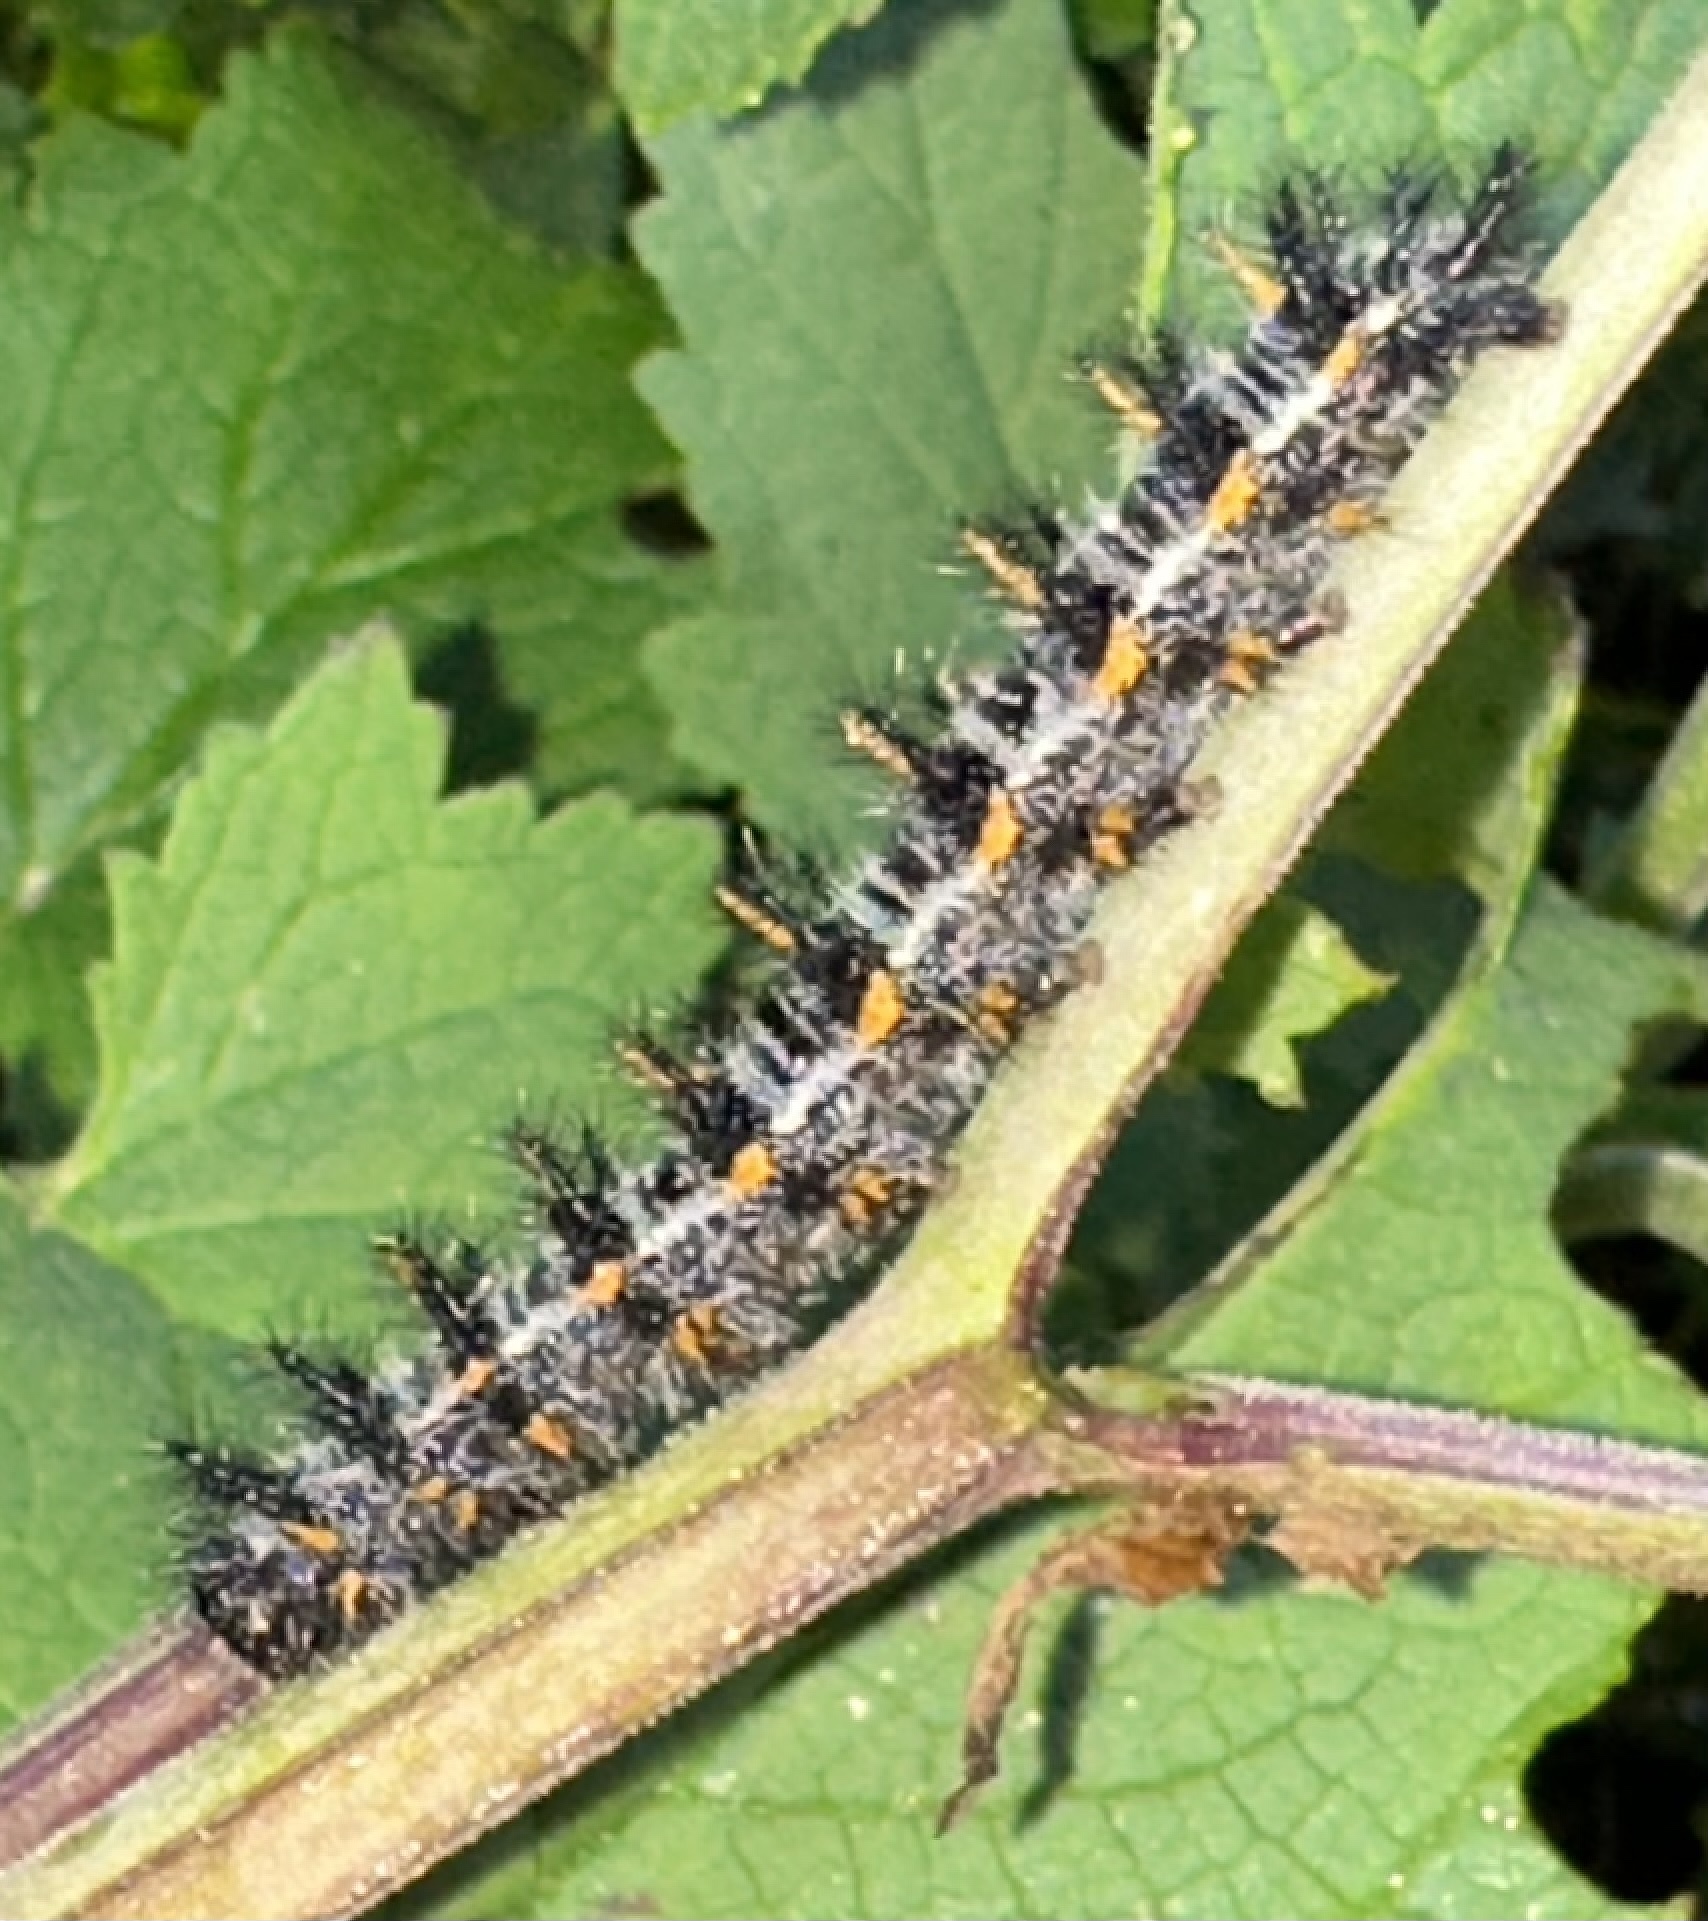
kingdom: Animalia
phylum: Arthropoda
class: Insecta
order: Lepidoptera
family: Nymphalidae
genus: Occidryas
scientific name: Occidryas chalcedona
